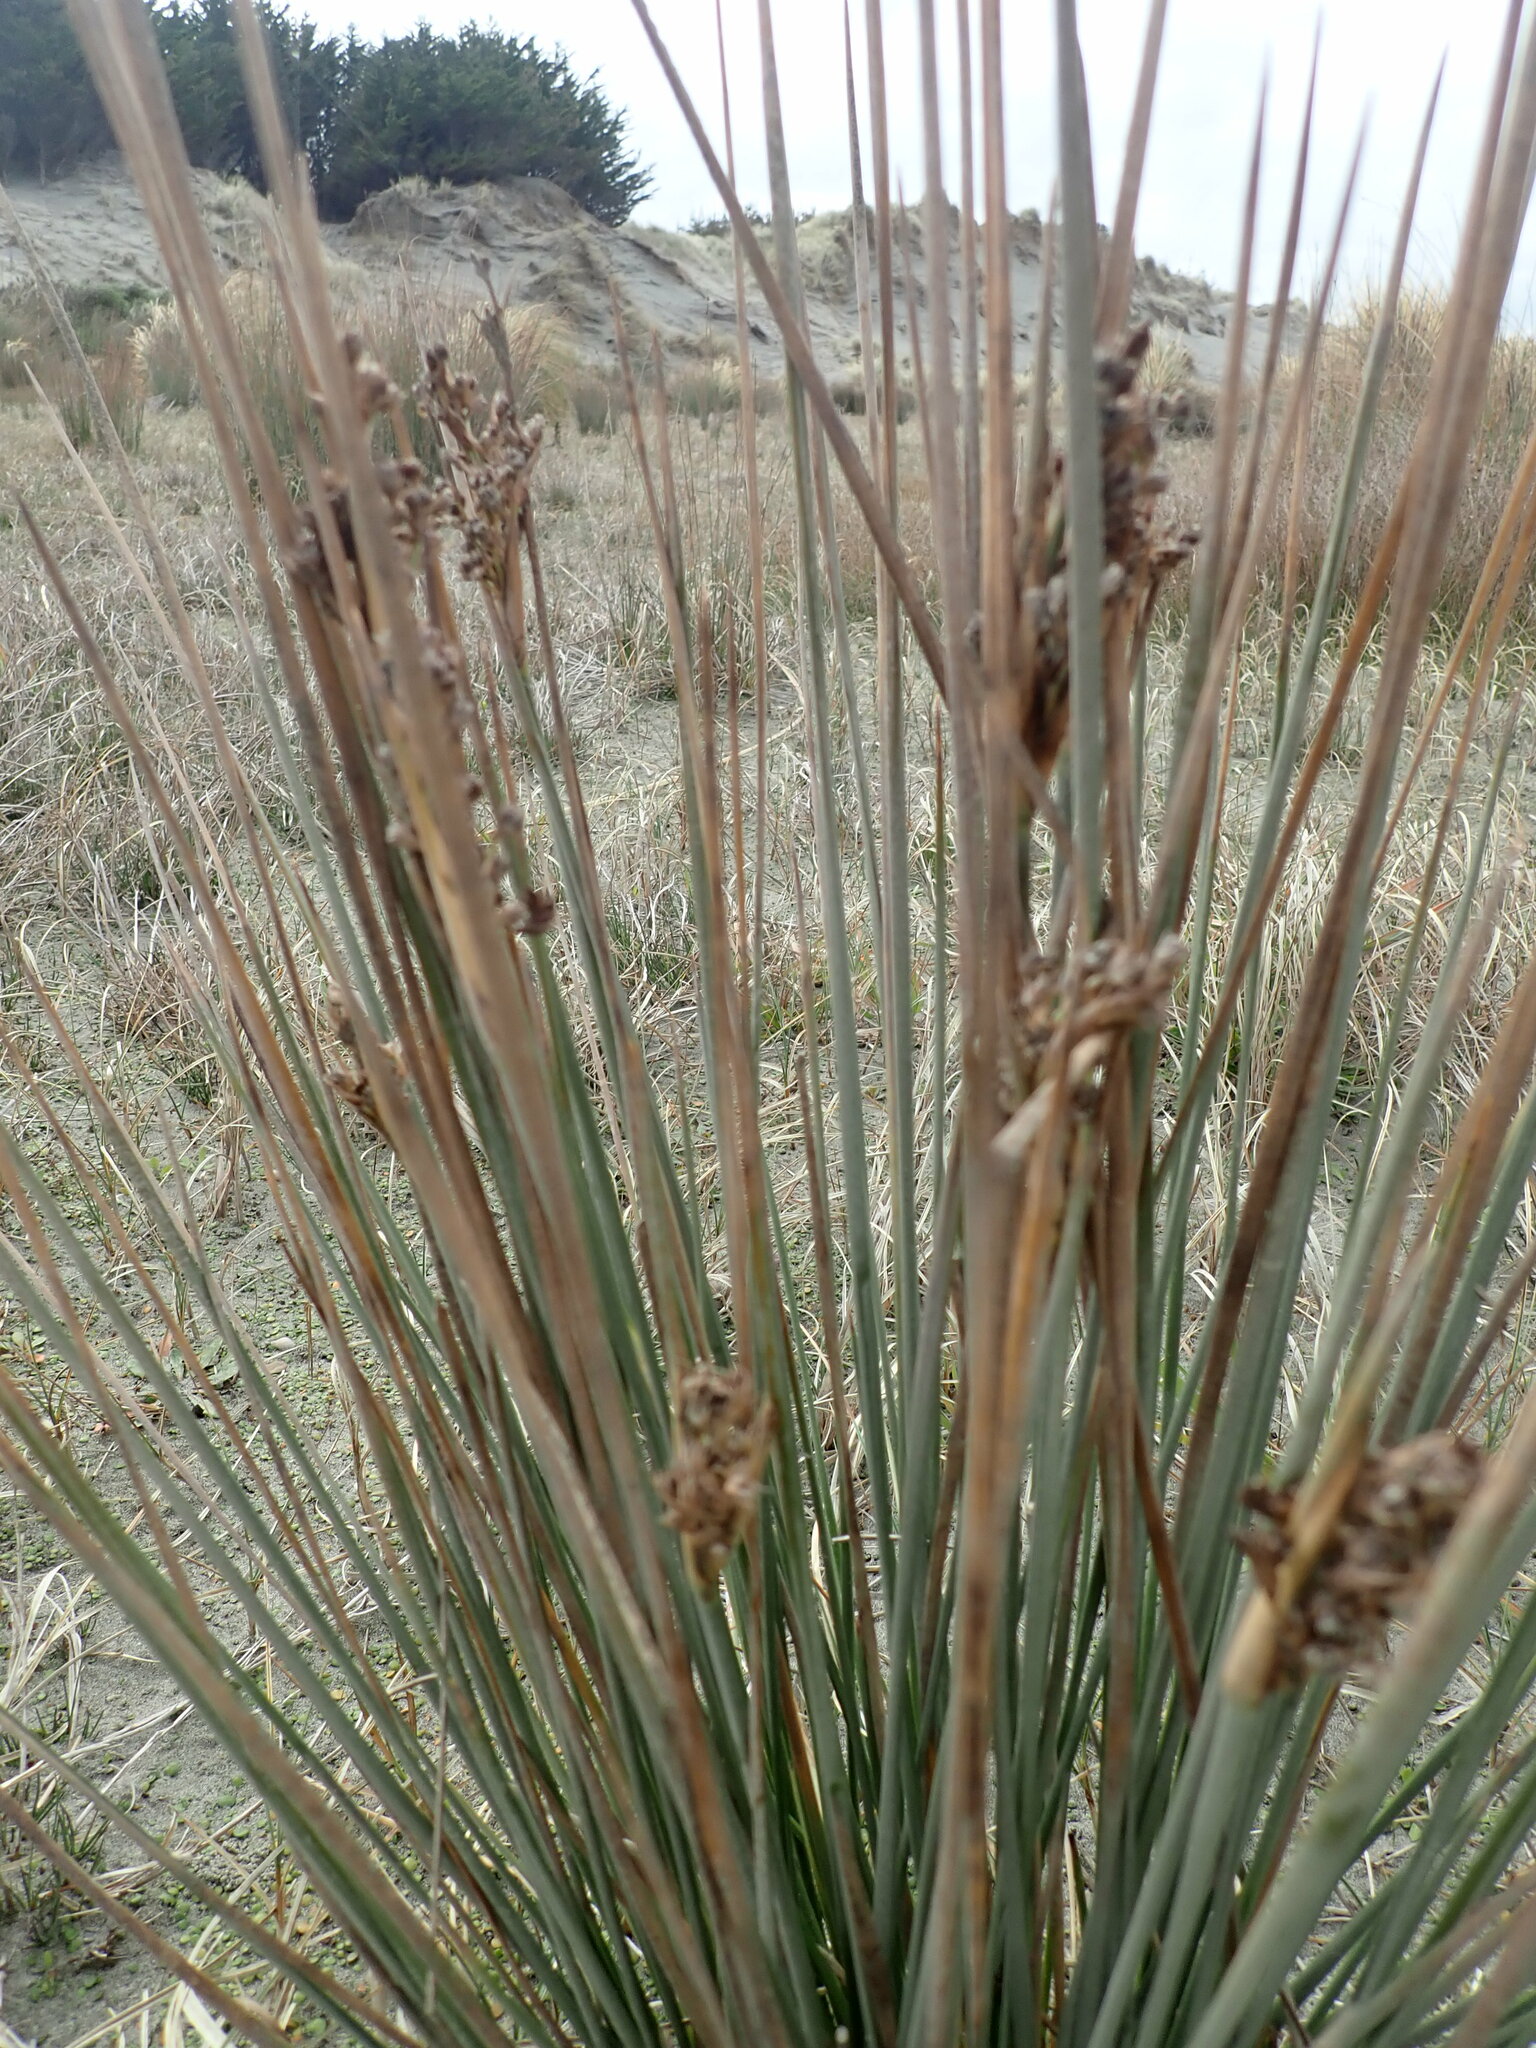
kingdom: Plantae
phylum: Tracheophyta
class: Liliopsida
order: Poales
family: Juncaceae
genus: Juncus
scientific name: Juncus acutus
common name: Sharp rush
